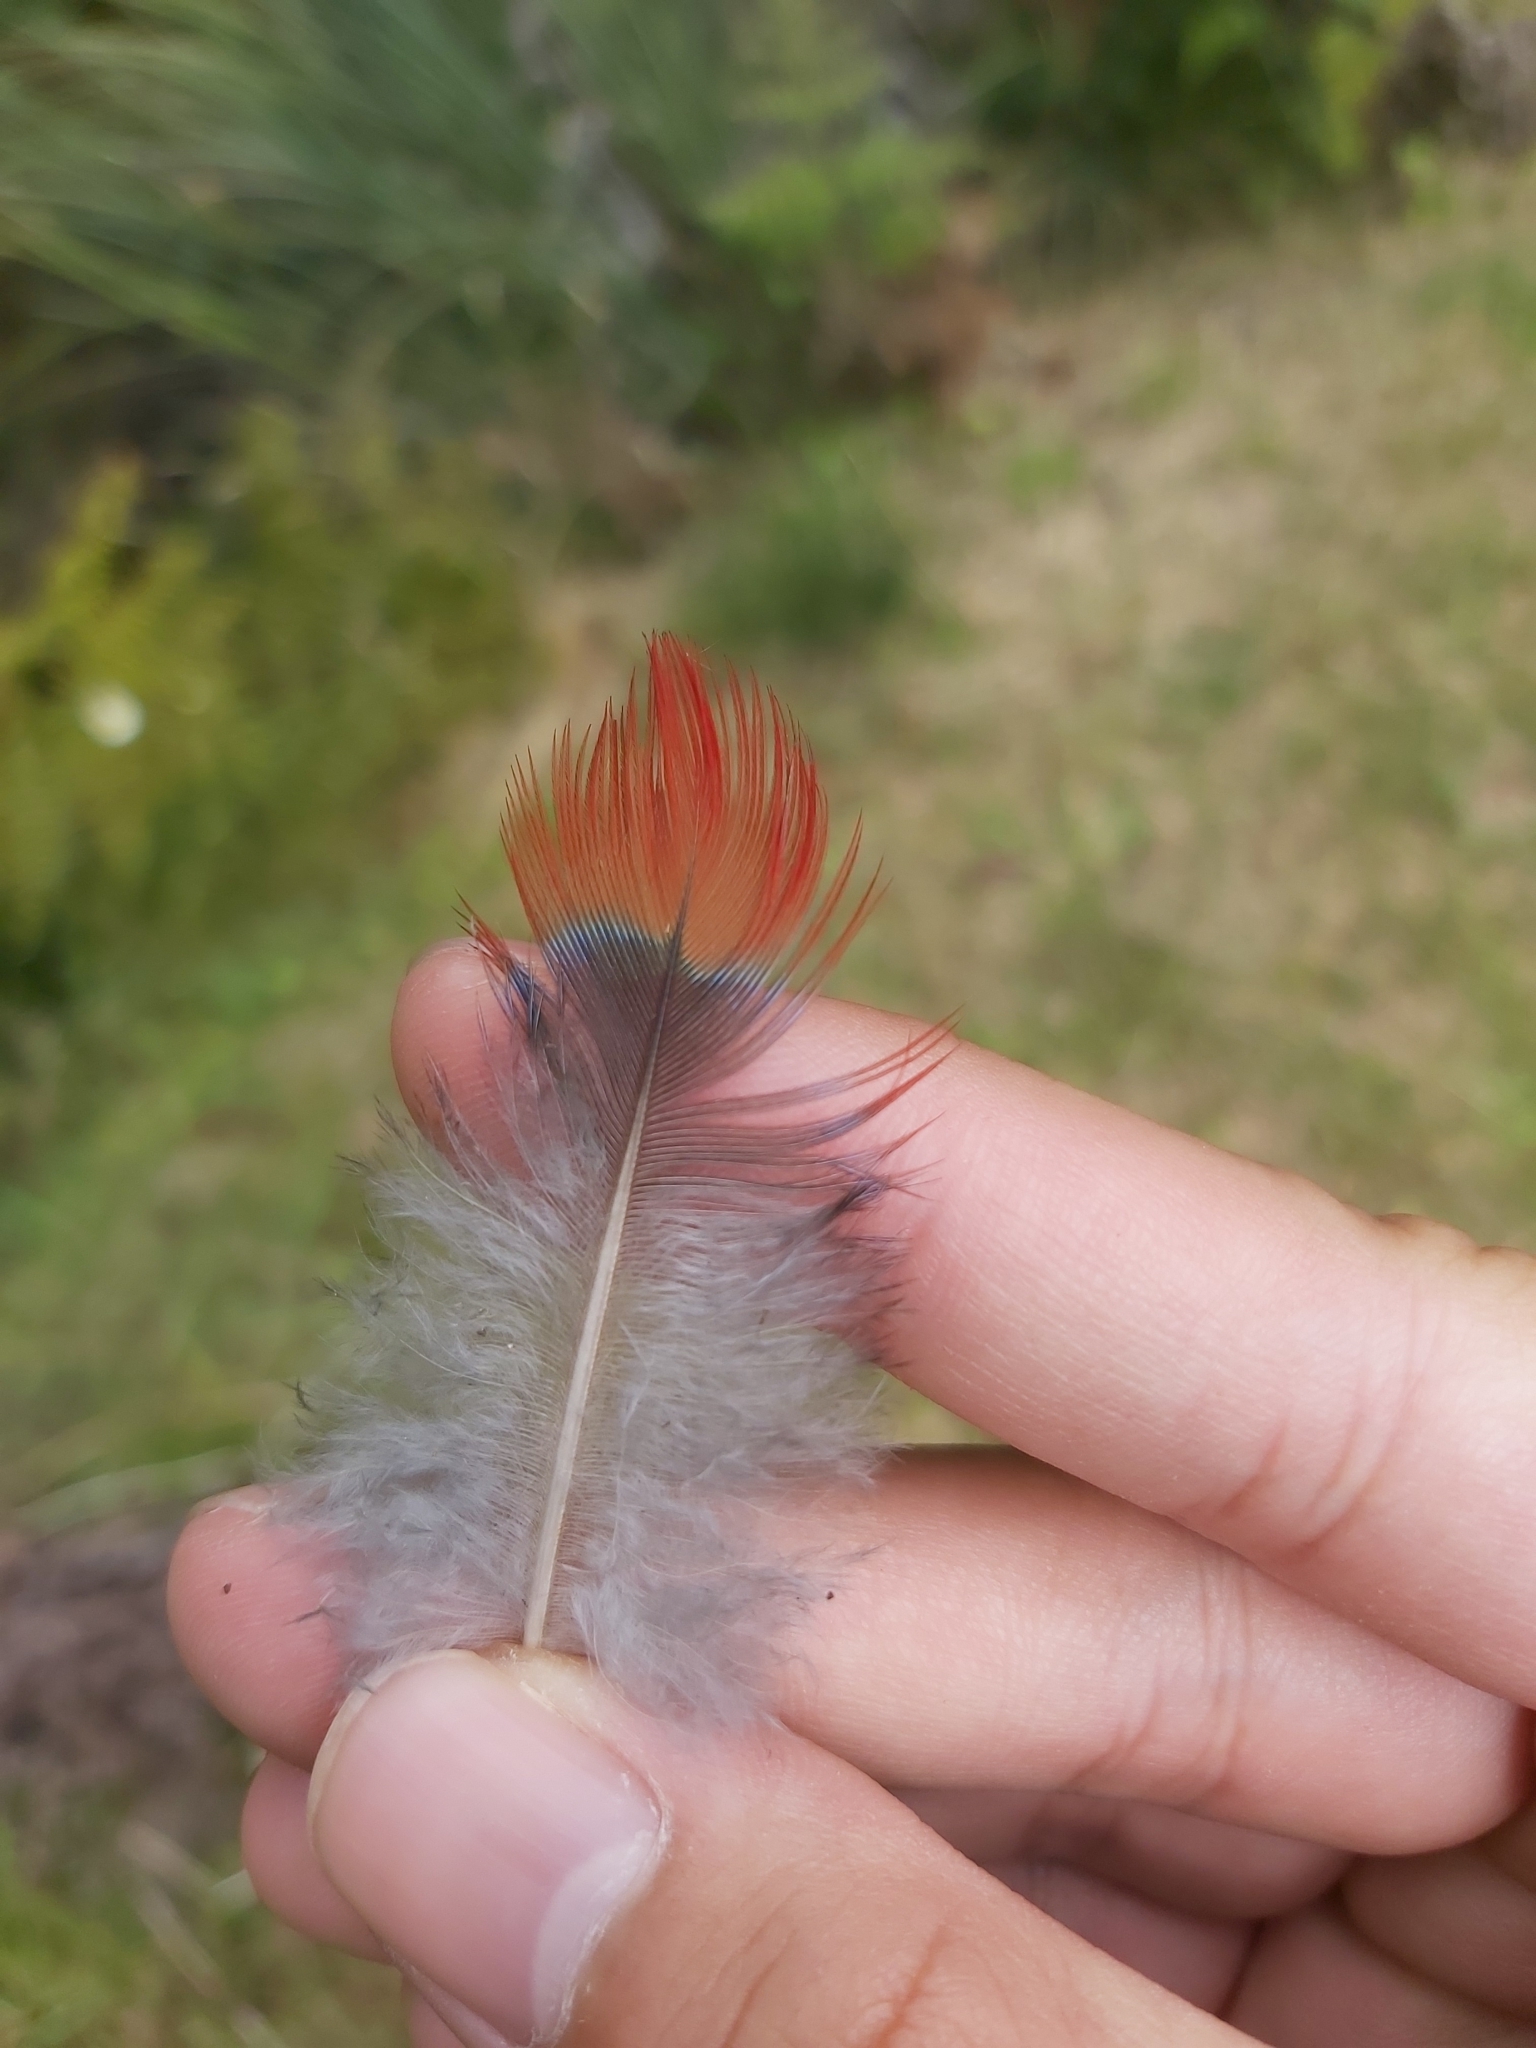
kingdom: Animalia
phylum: Chordata
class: Aves
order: Psittaciformes
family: Psittacidae
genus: Platycercus
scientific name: Platycercus elegans
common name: Crimson rosella
